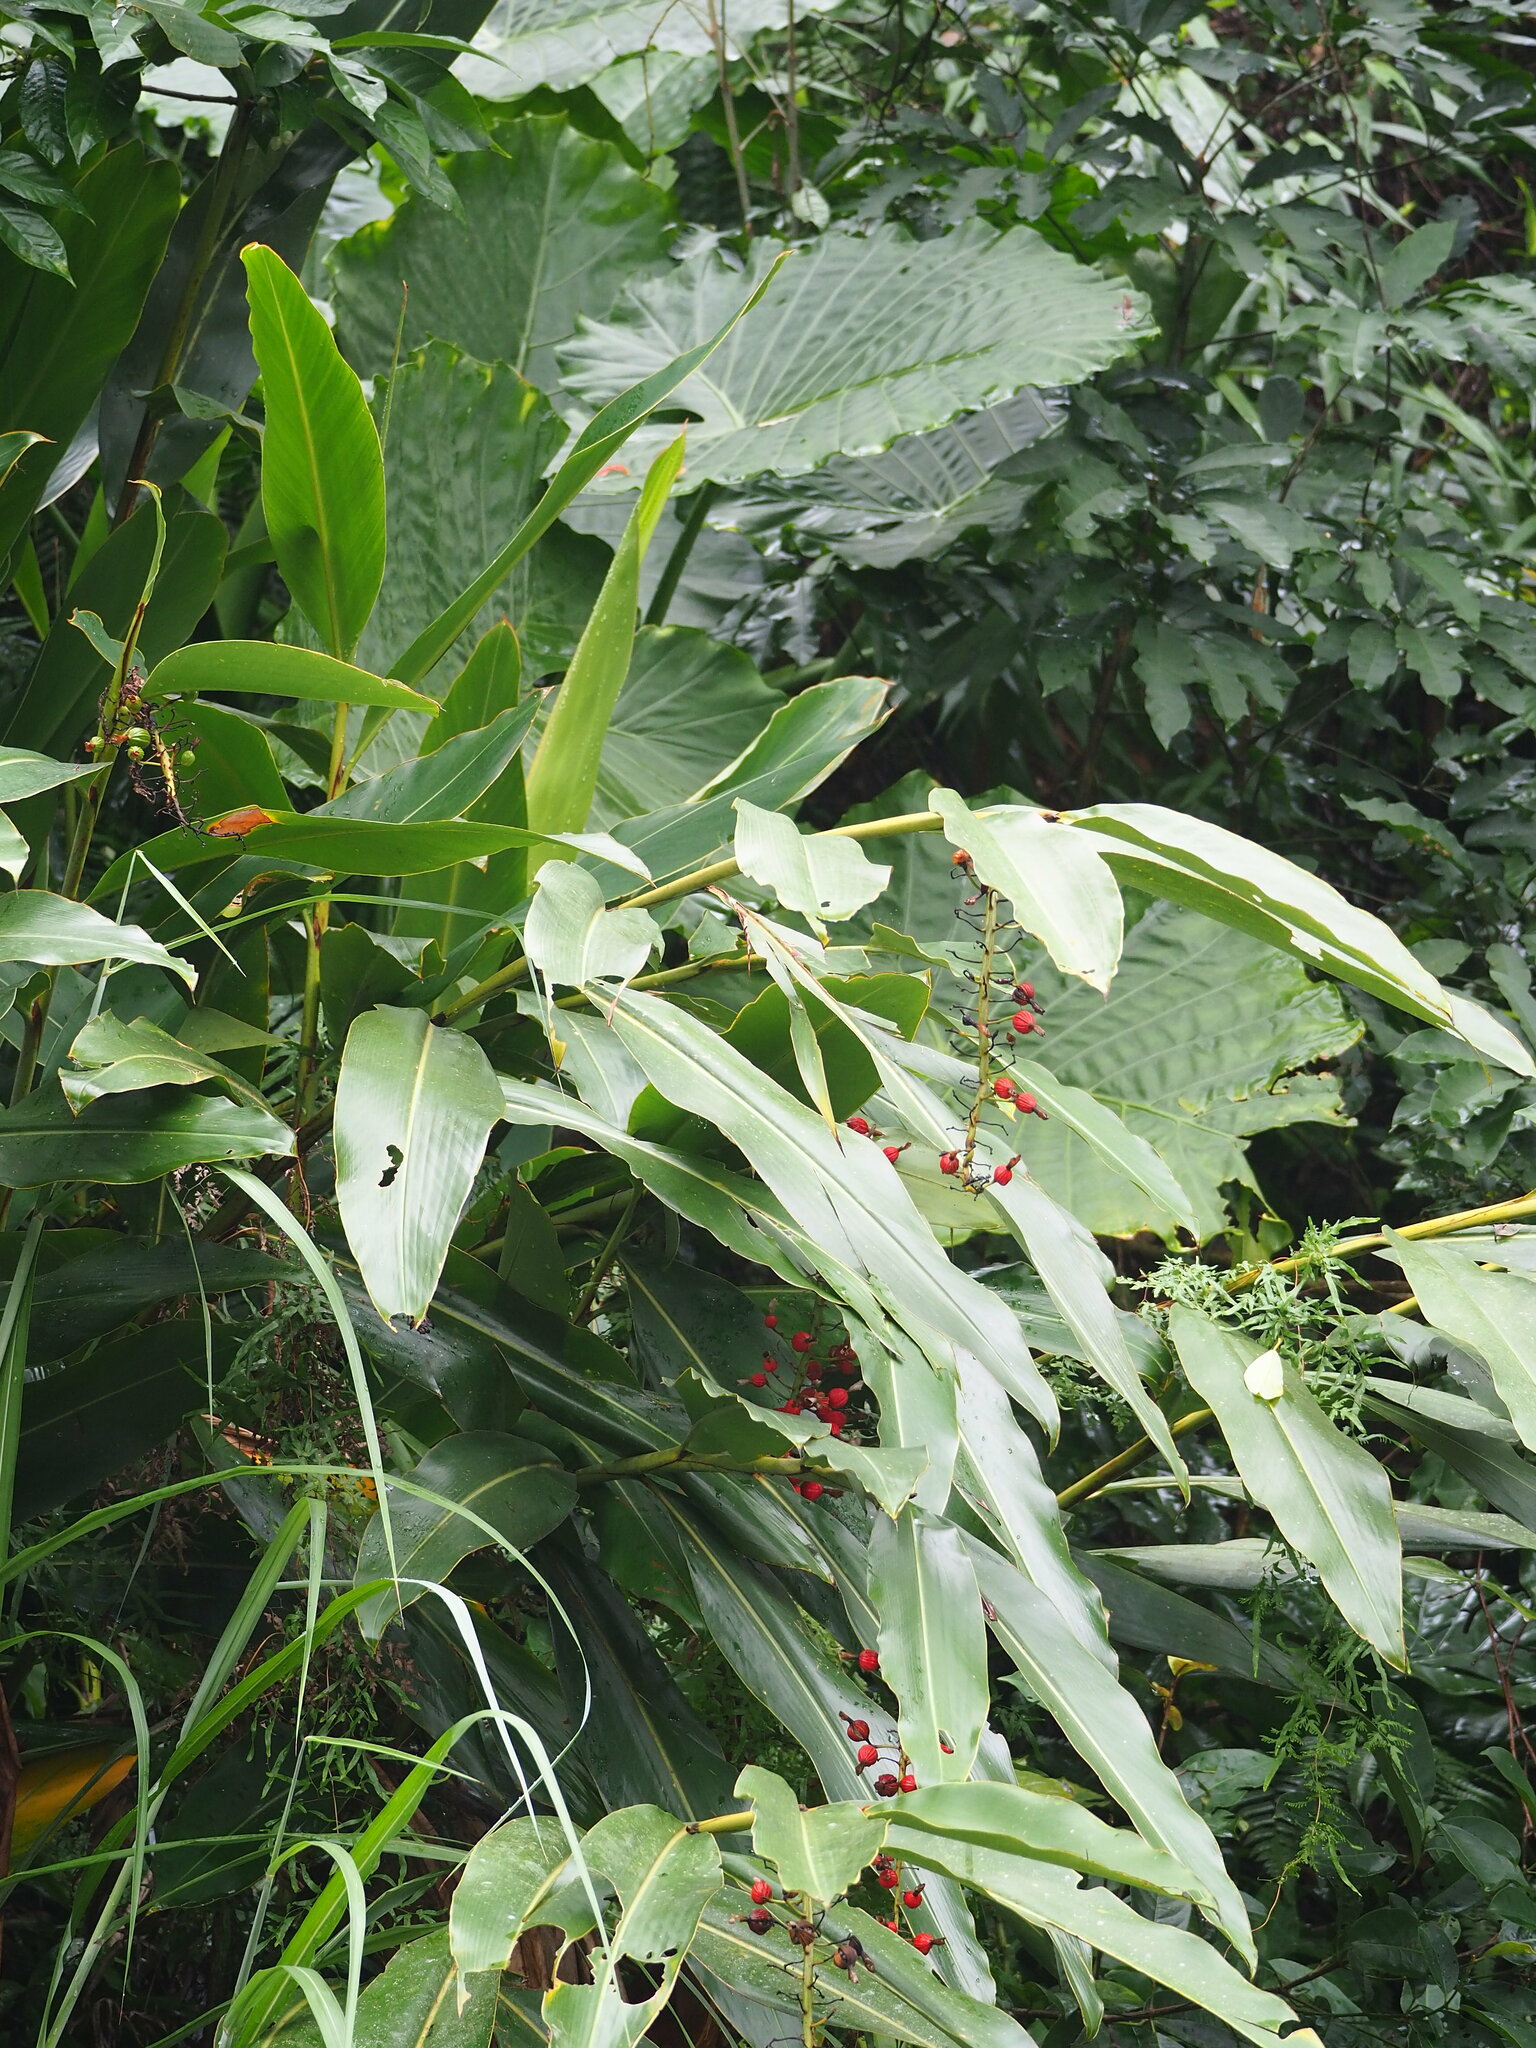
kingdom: Plantae
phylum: Tracheophyta
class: Liliopsida
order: Zingiberales
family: Zingiberaceae
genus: Alpinia
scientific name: Alpinia zerumbet
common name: Shellplant
